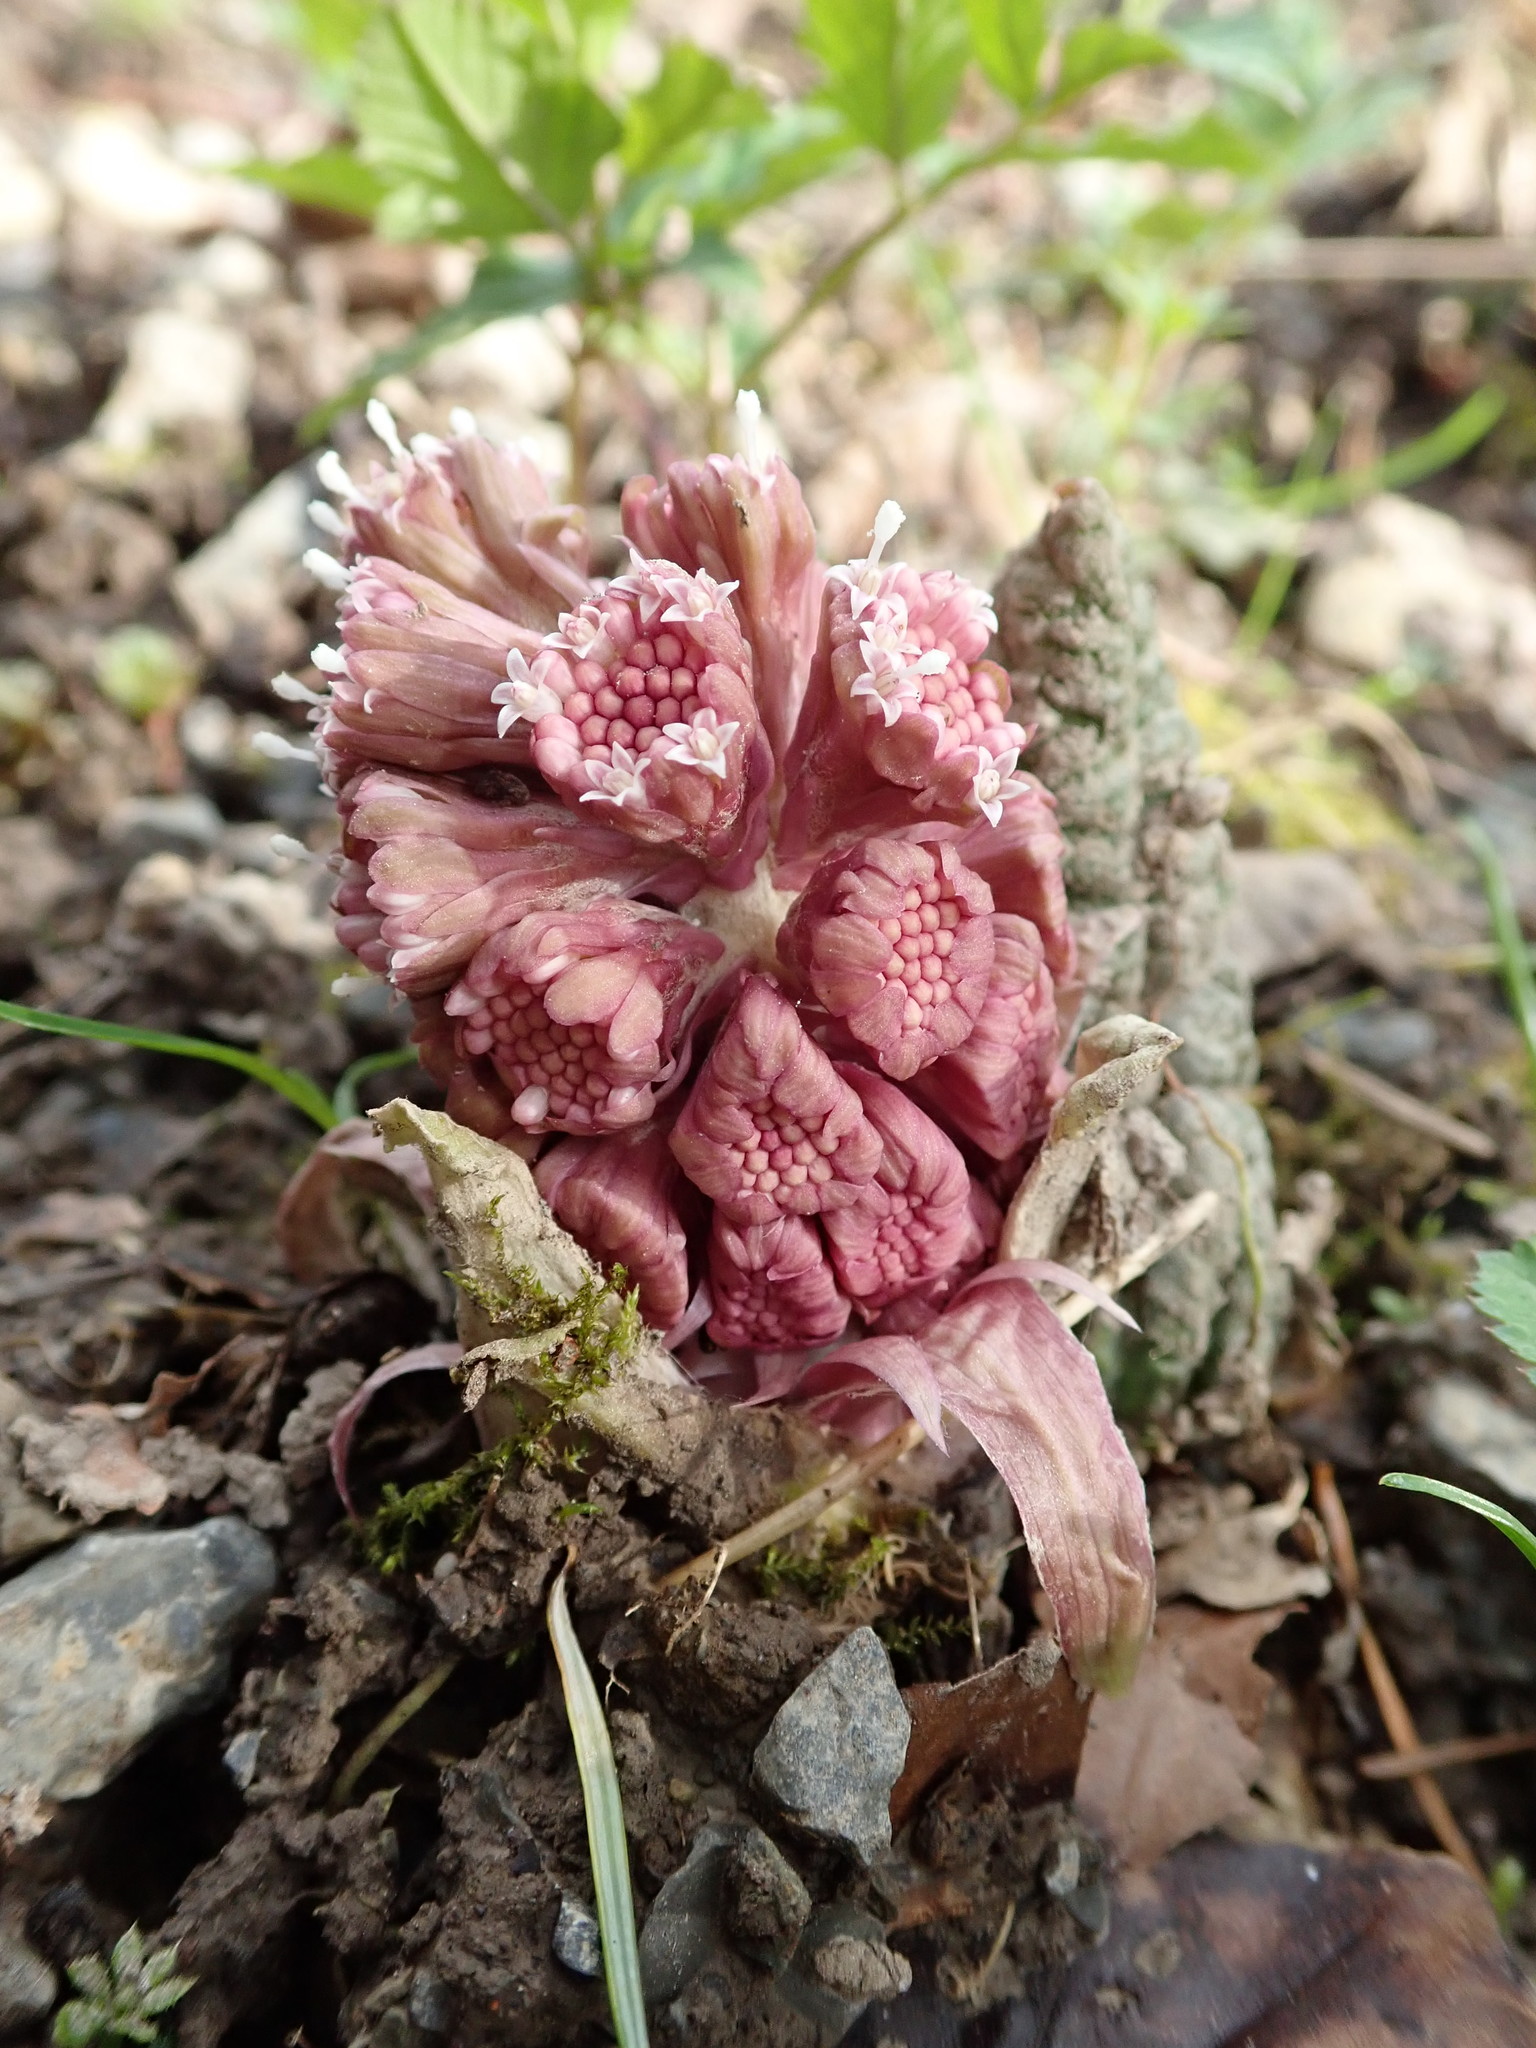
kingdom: Plantae
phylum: Tracheophyta
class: Magnoliopsida
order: Asterales
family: Asteraceae
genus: Petasites
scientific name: Petasites hybridus
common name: Butterbur
